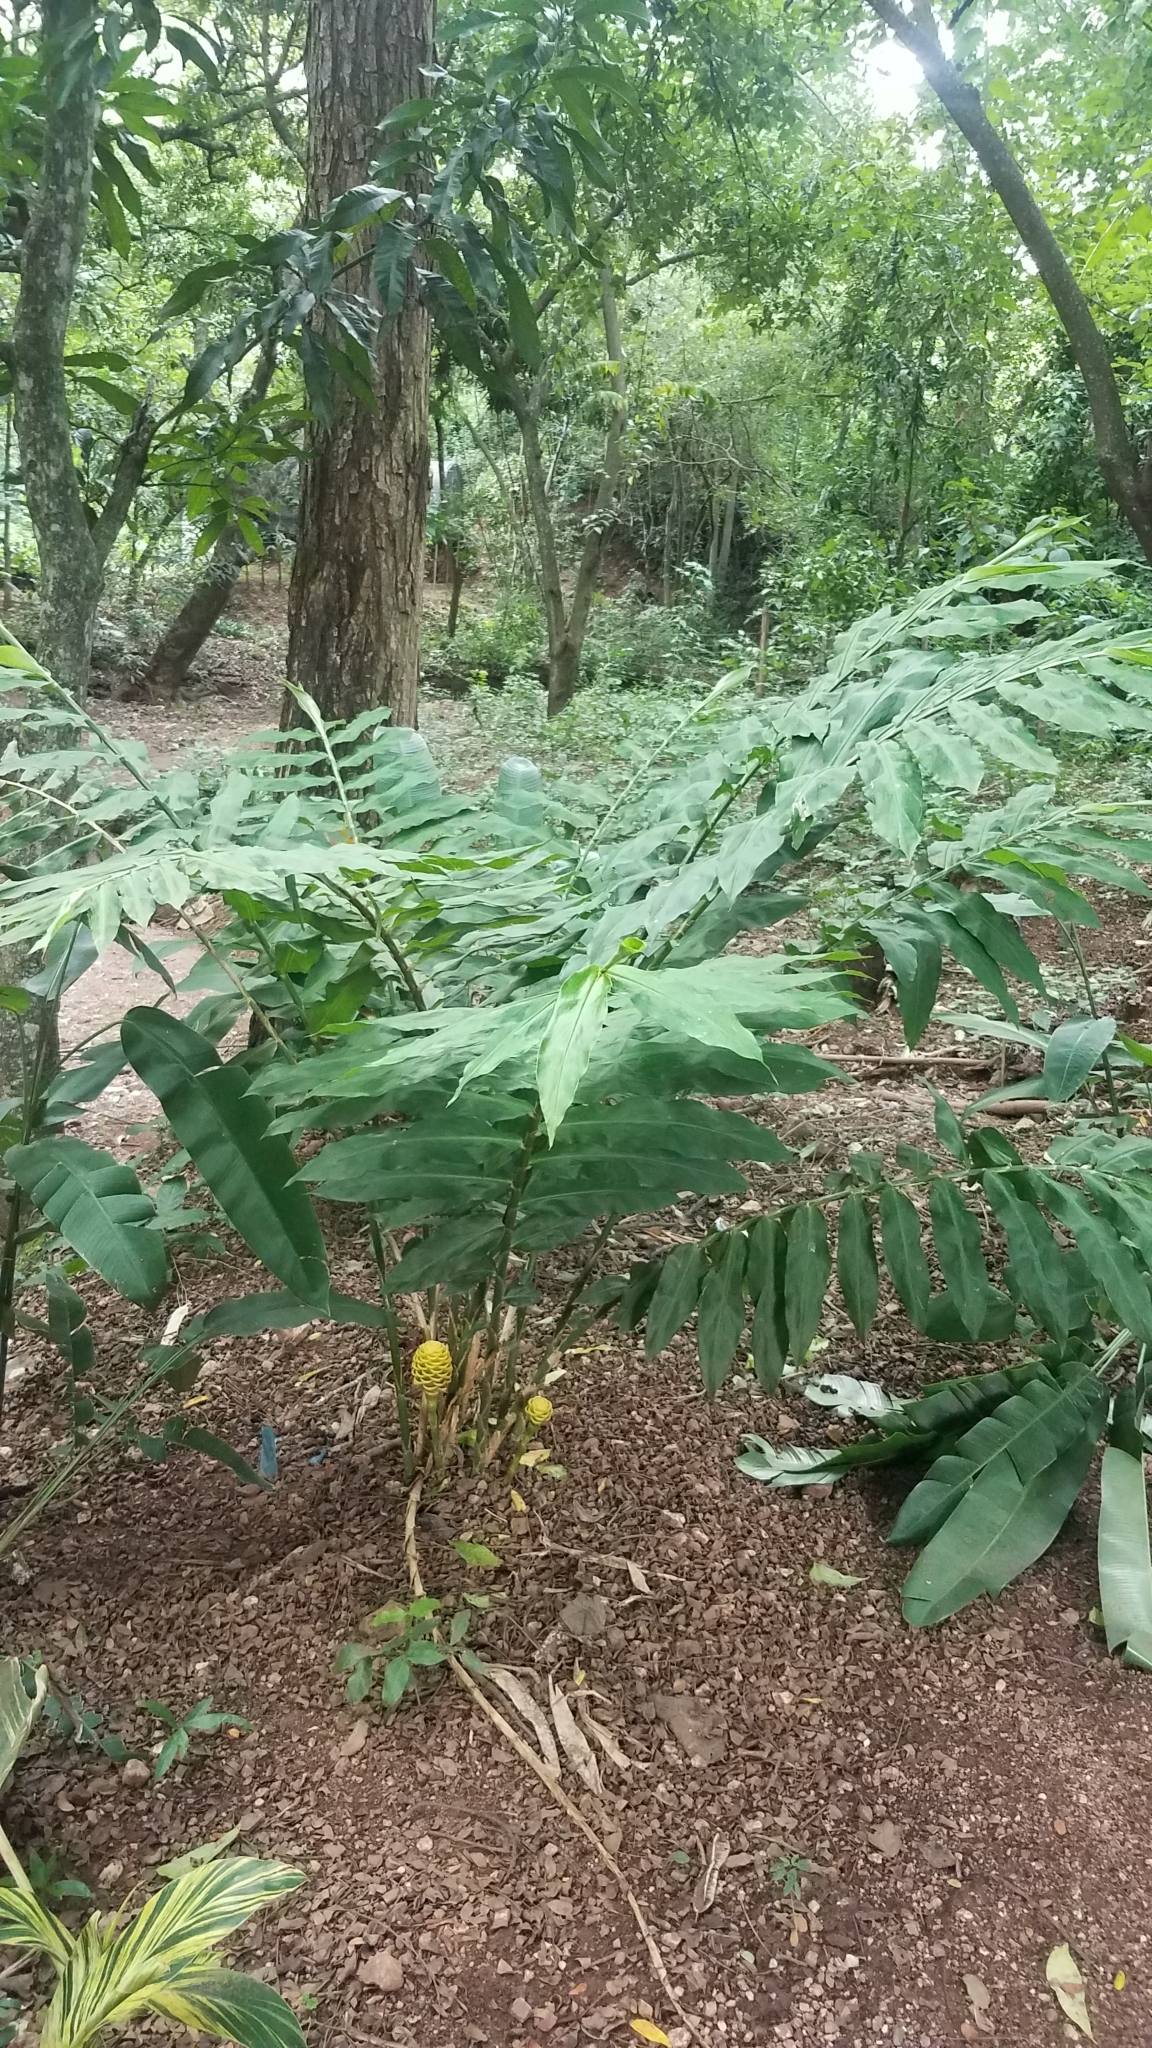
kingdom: Plantae
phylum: Tracheophyta
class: Liliopsida
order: Zingiberales
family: Zingiberaceae
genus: Zingiber
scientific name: Zingiber spectabile
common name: Beehive ginger
